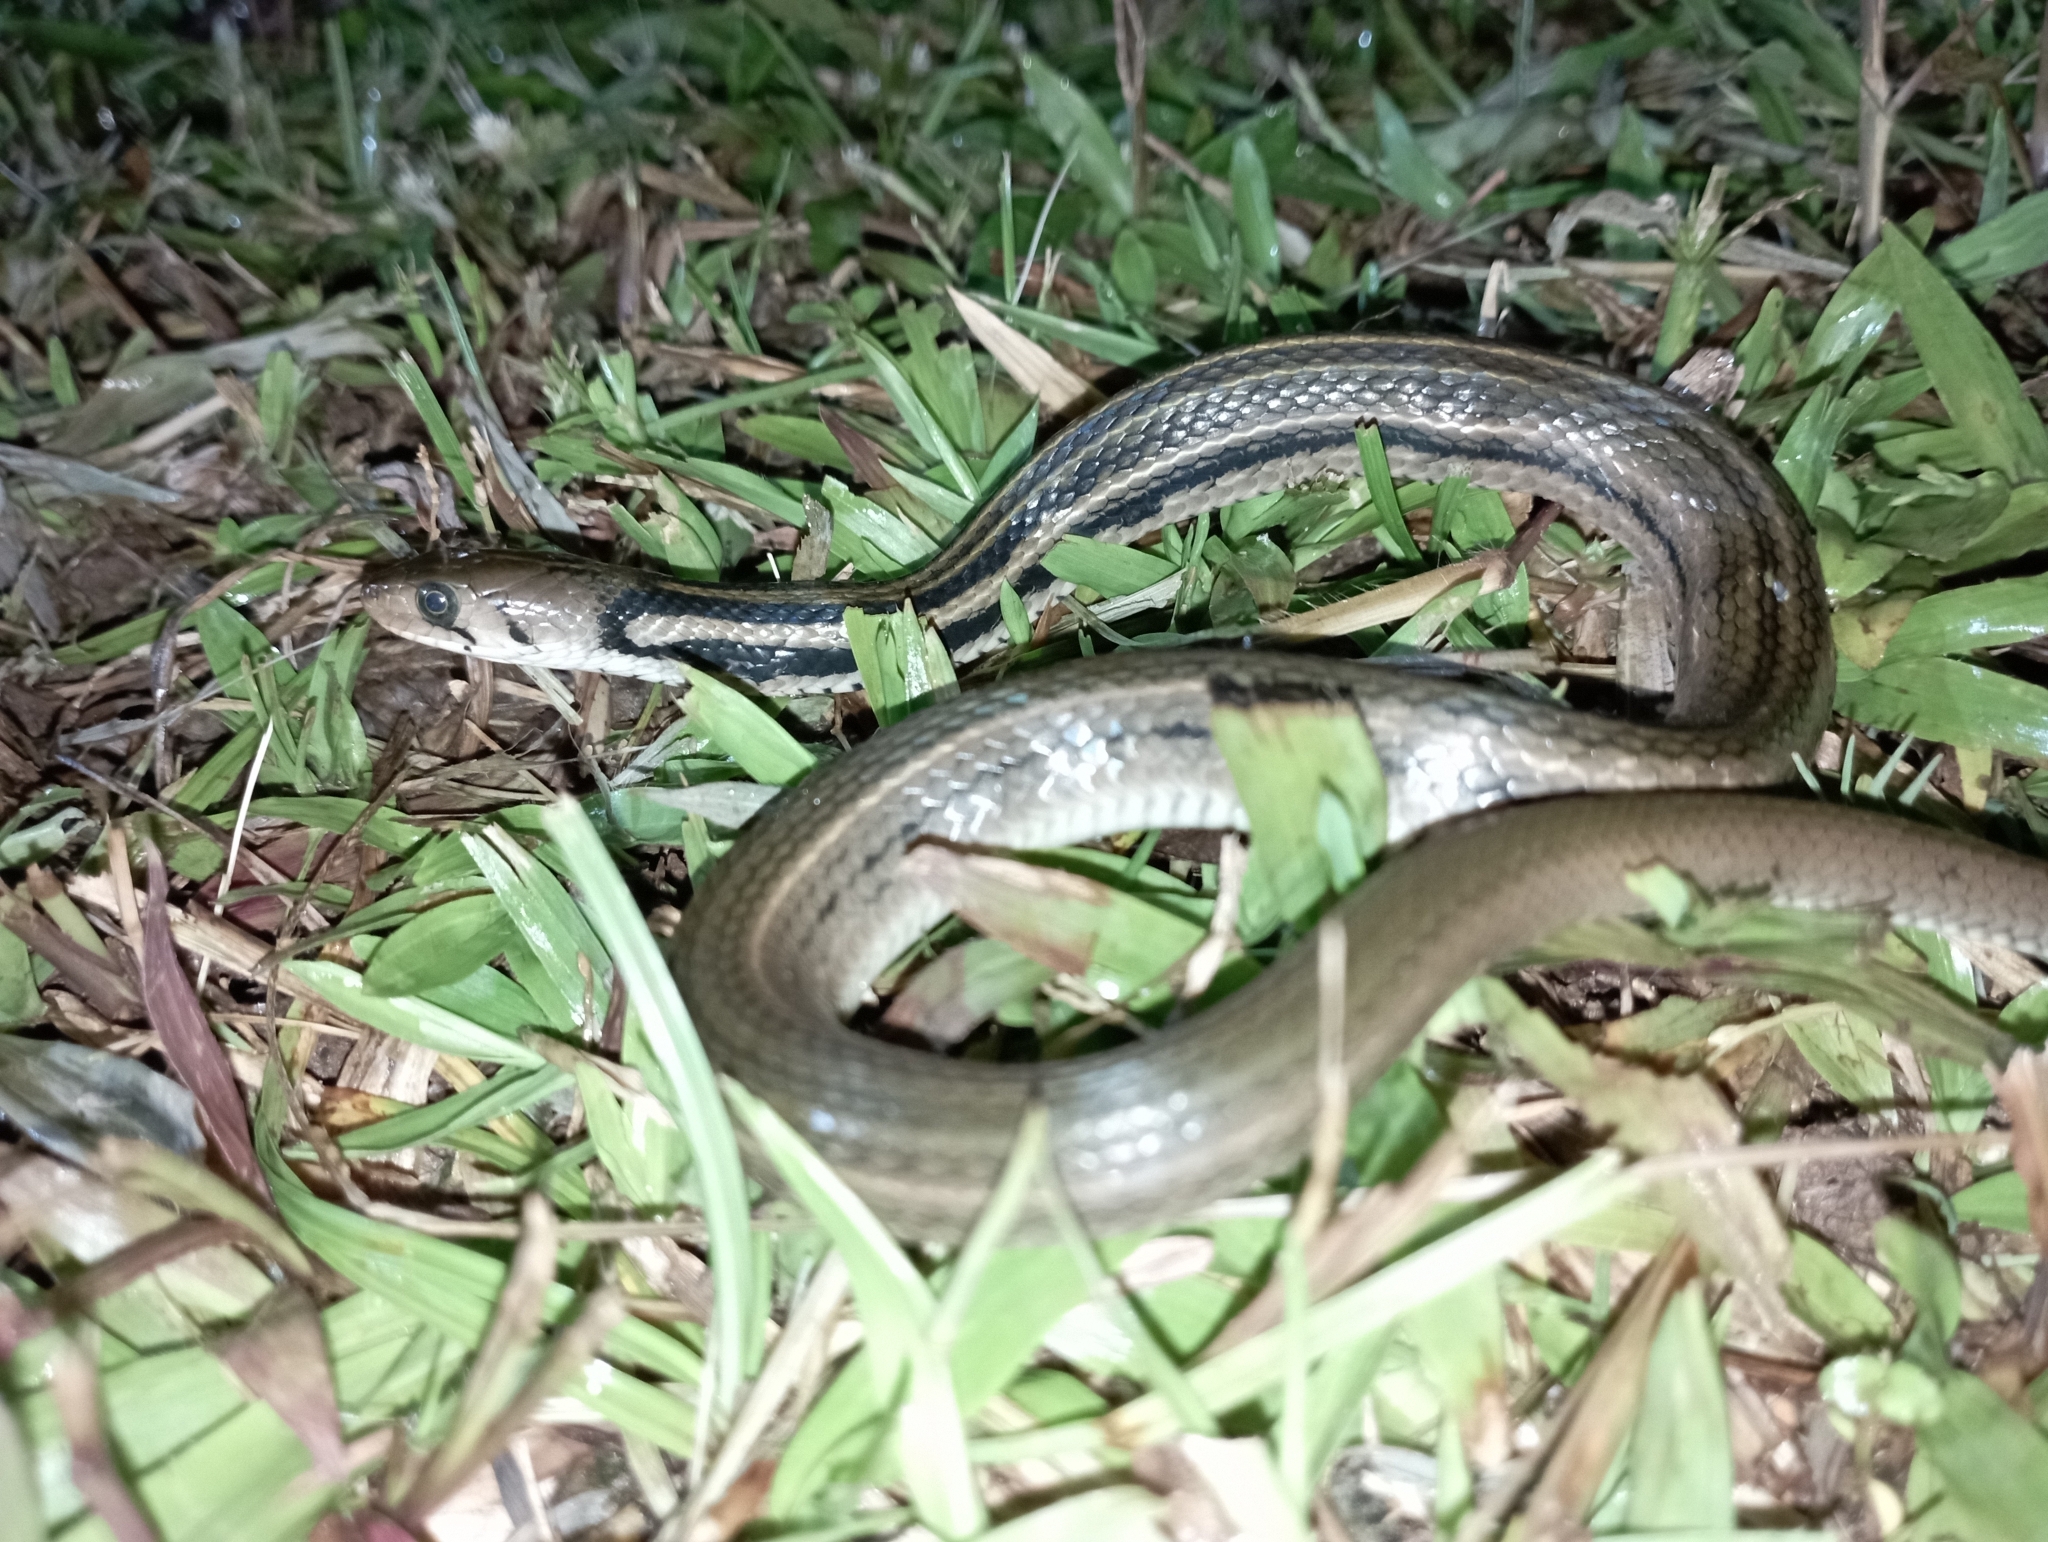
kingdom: Animalia
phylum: Chordata
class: Squamata
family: Colubridae
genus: Fowlea
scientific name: Fowlea melanzostus
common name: Javanese keelback water snake
